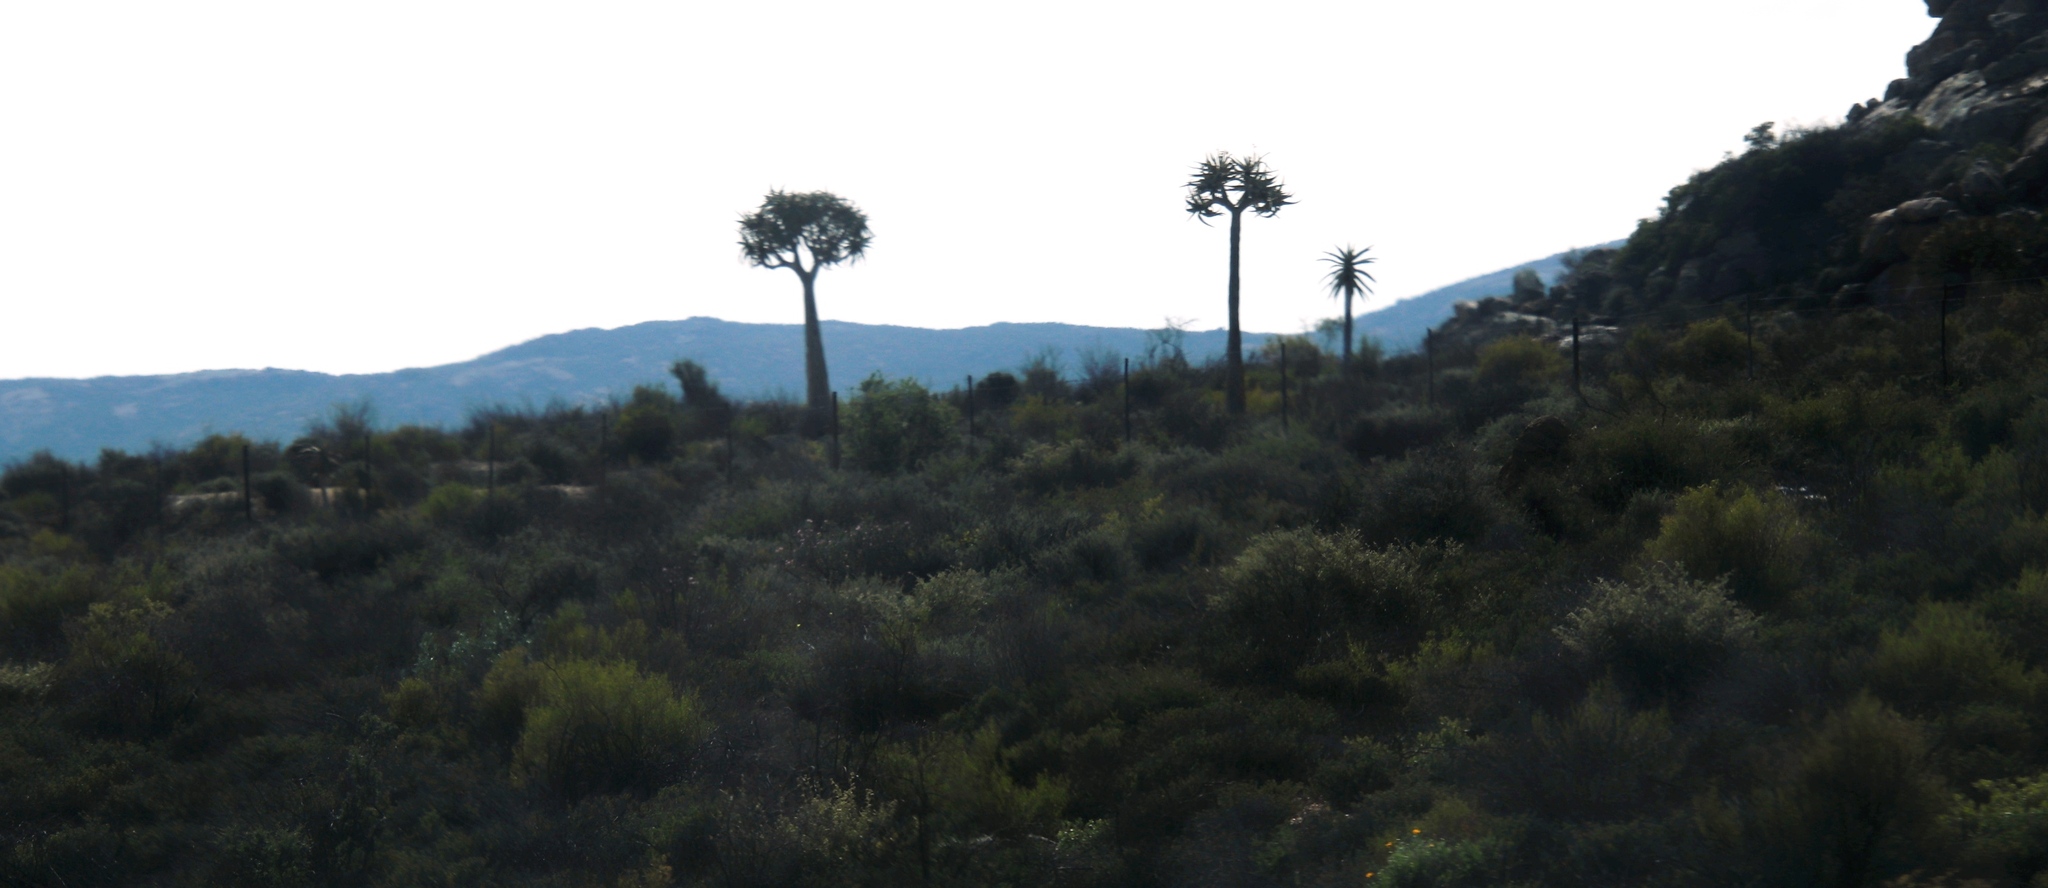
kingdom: Plantae
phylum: Tracheophyta
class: Liliopsida
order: Asparagales
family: Asphodelaceae
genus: Aloidendron
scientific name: Aloidendron dichotomum
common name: Quiver tree
